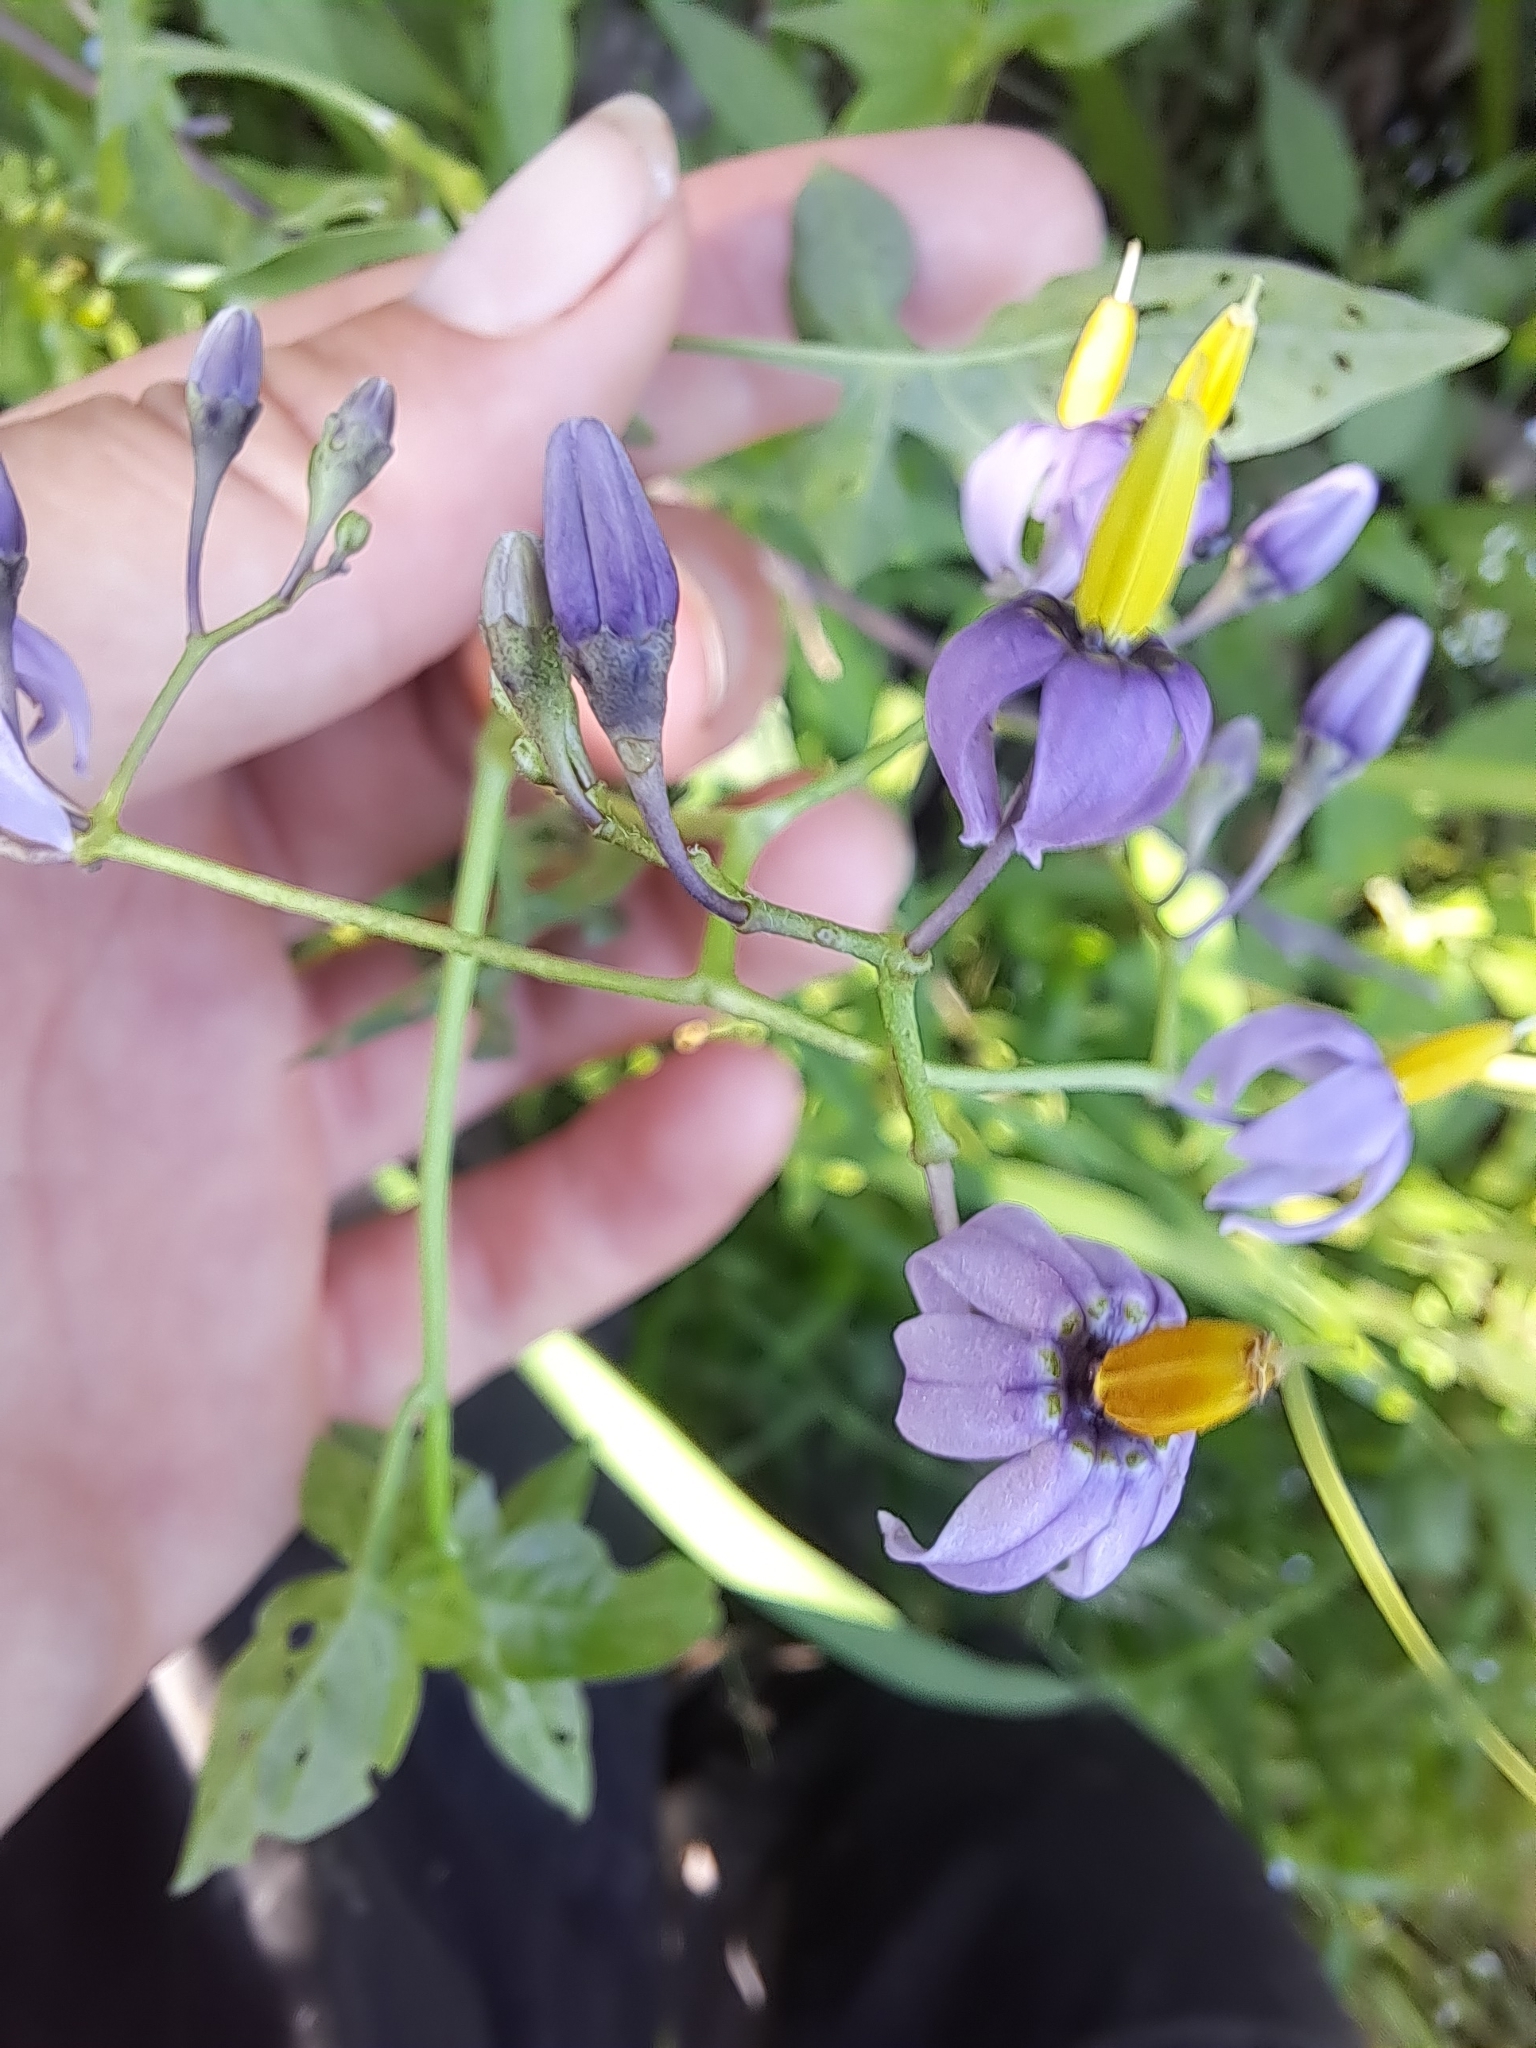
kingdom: Plantae
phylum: Tracheophyta
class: Magnoliopsida
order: Solanales
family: Solanaceae
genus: Solanum
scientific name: Solanum dulcamara
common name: Climbing nightshade
